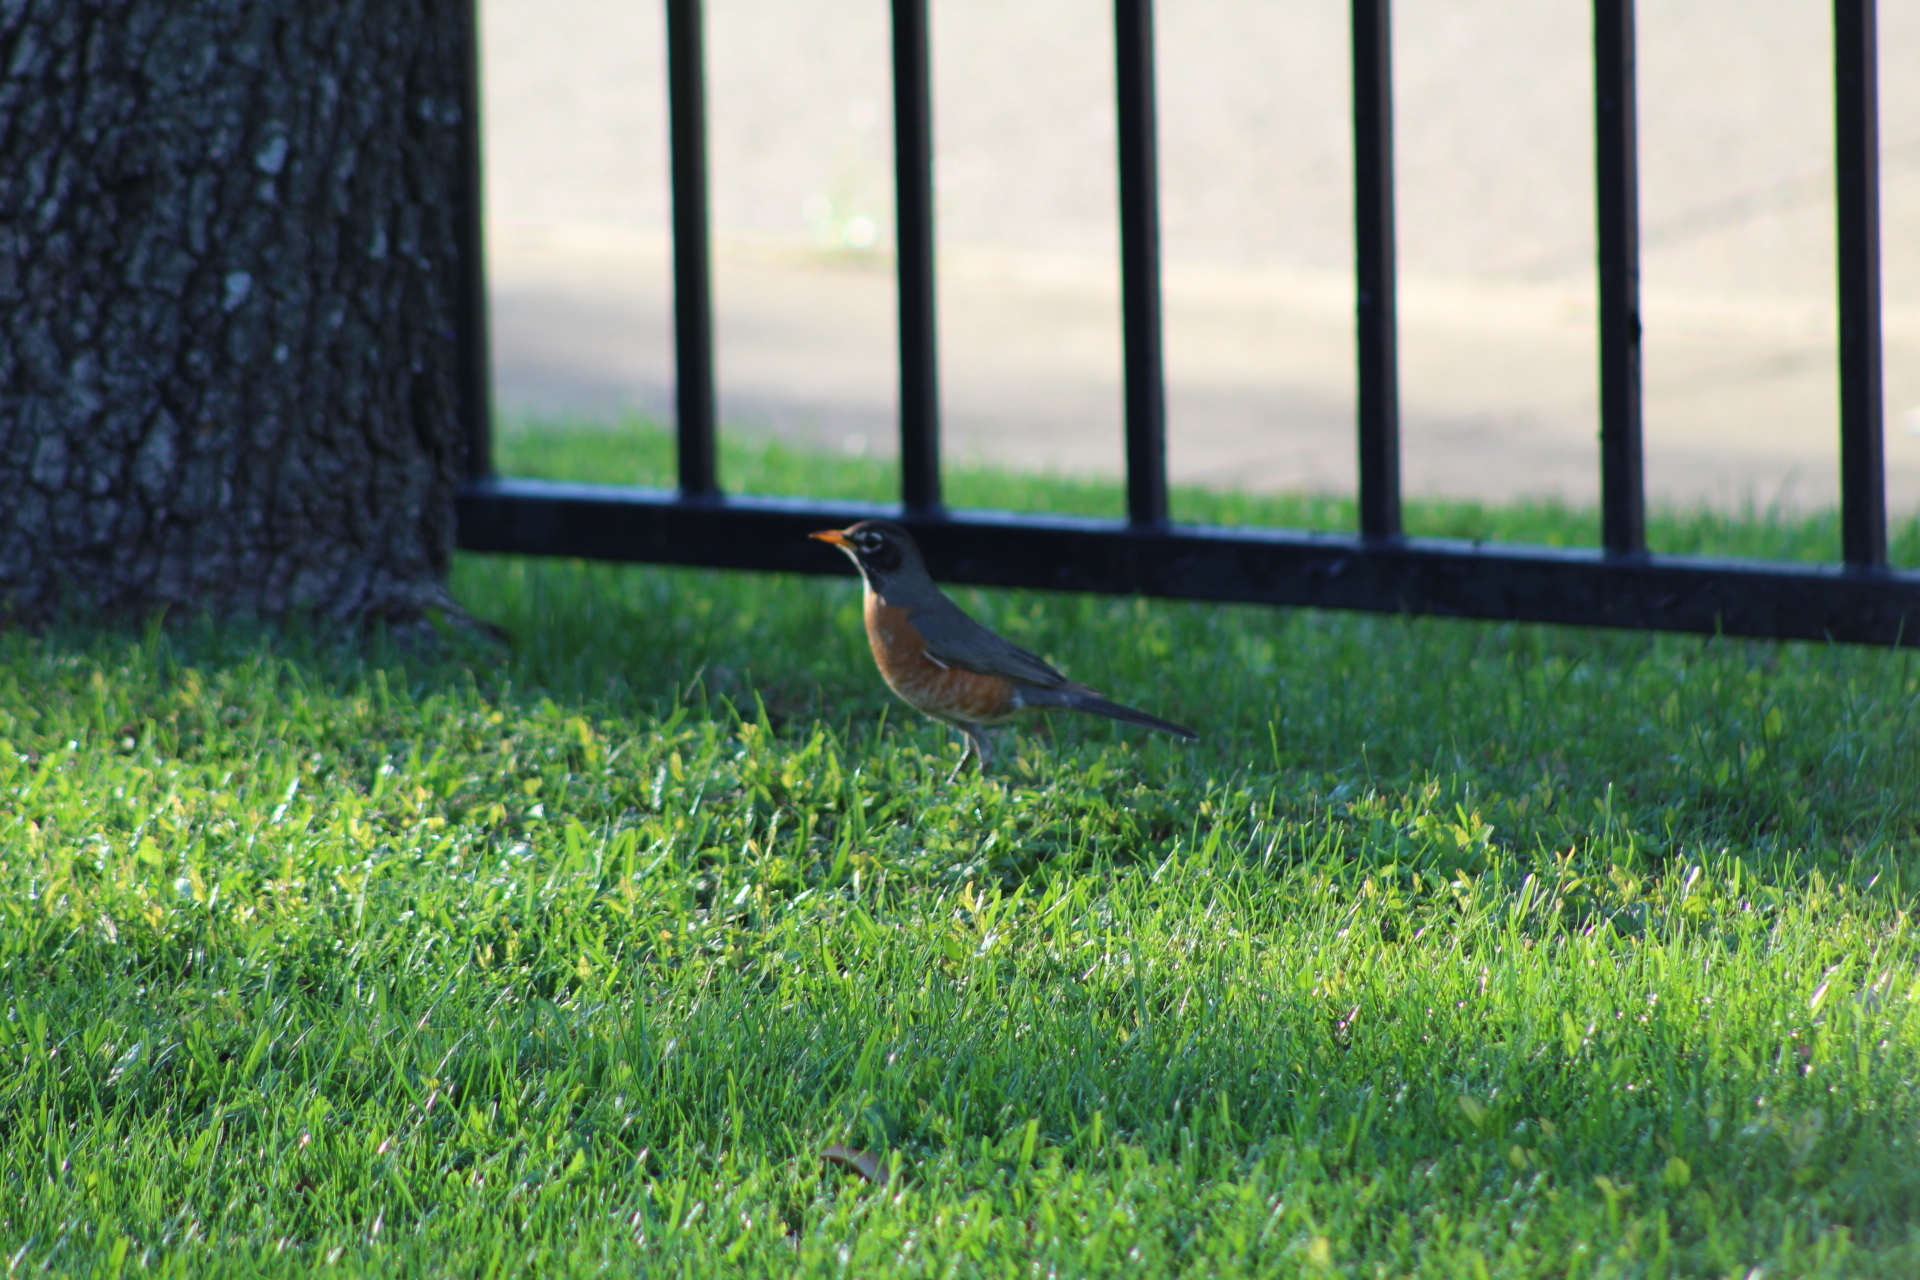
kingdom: Animalia
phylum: Chordata
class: Aves
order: Passeriformes
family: Turdidae
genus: Turdus
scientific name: Turdus migratorius
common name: American robin
